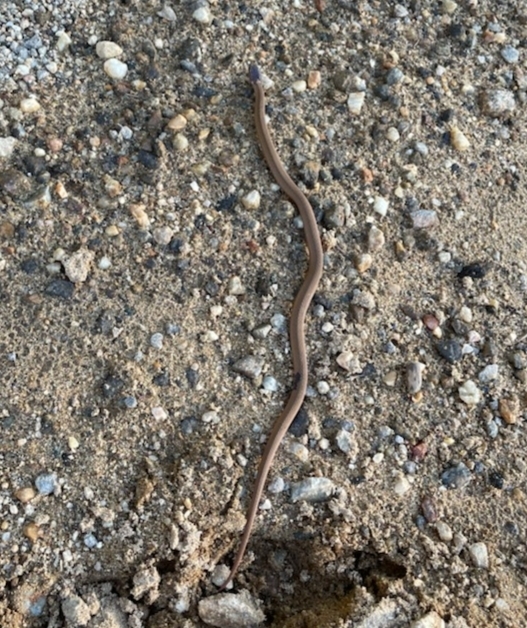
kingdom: Animalia
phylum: Chordata
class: Squamata
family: Colubridae
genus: Storeria
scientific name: Storeria occipitomaculata
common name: Redbelly snake
